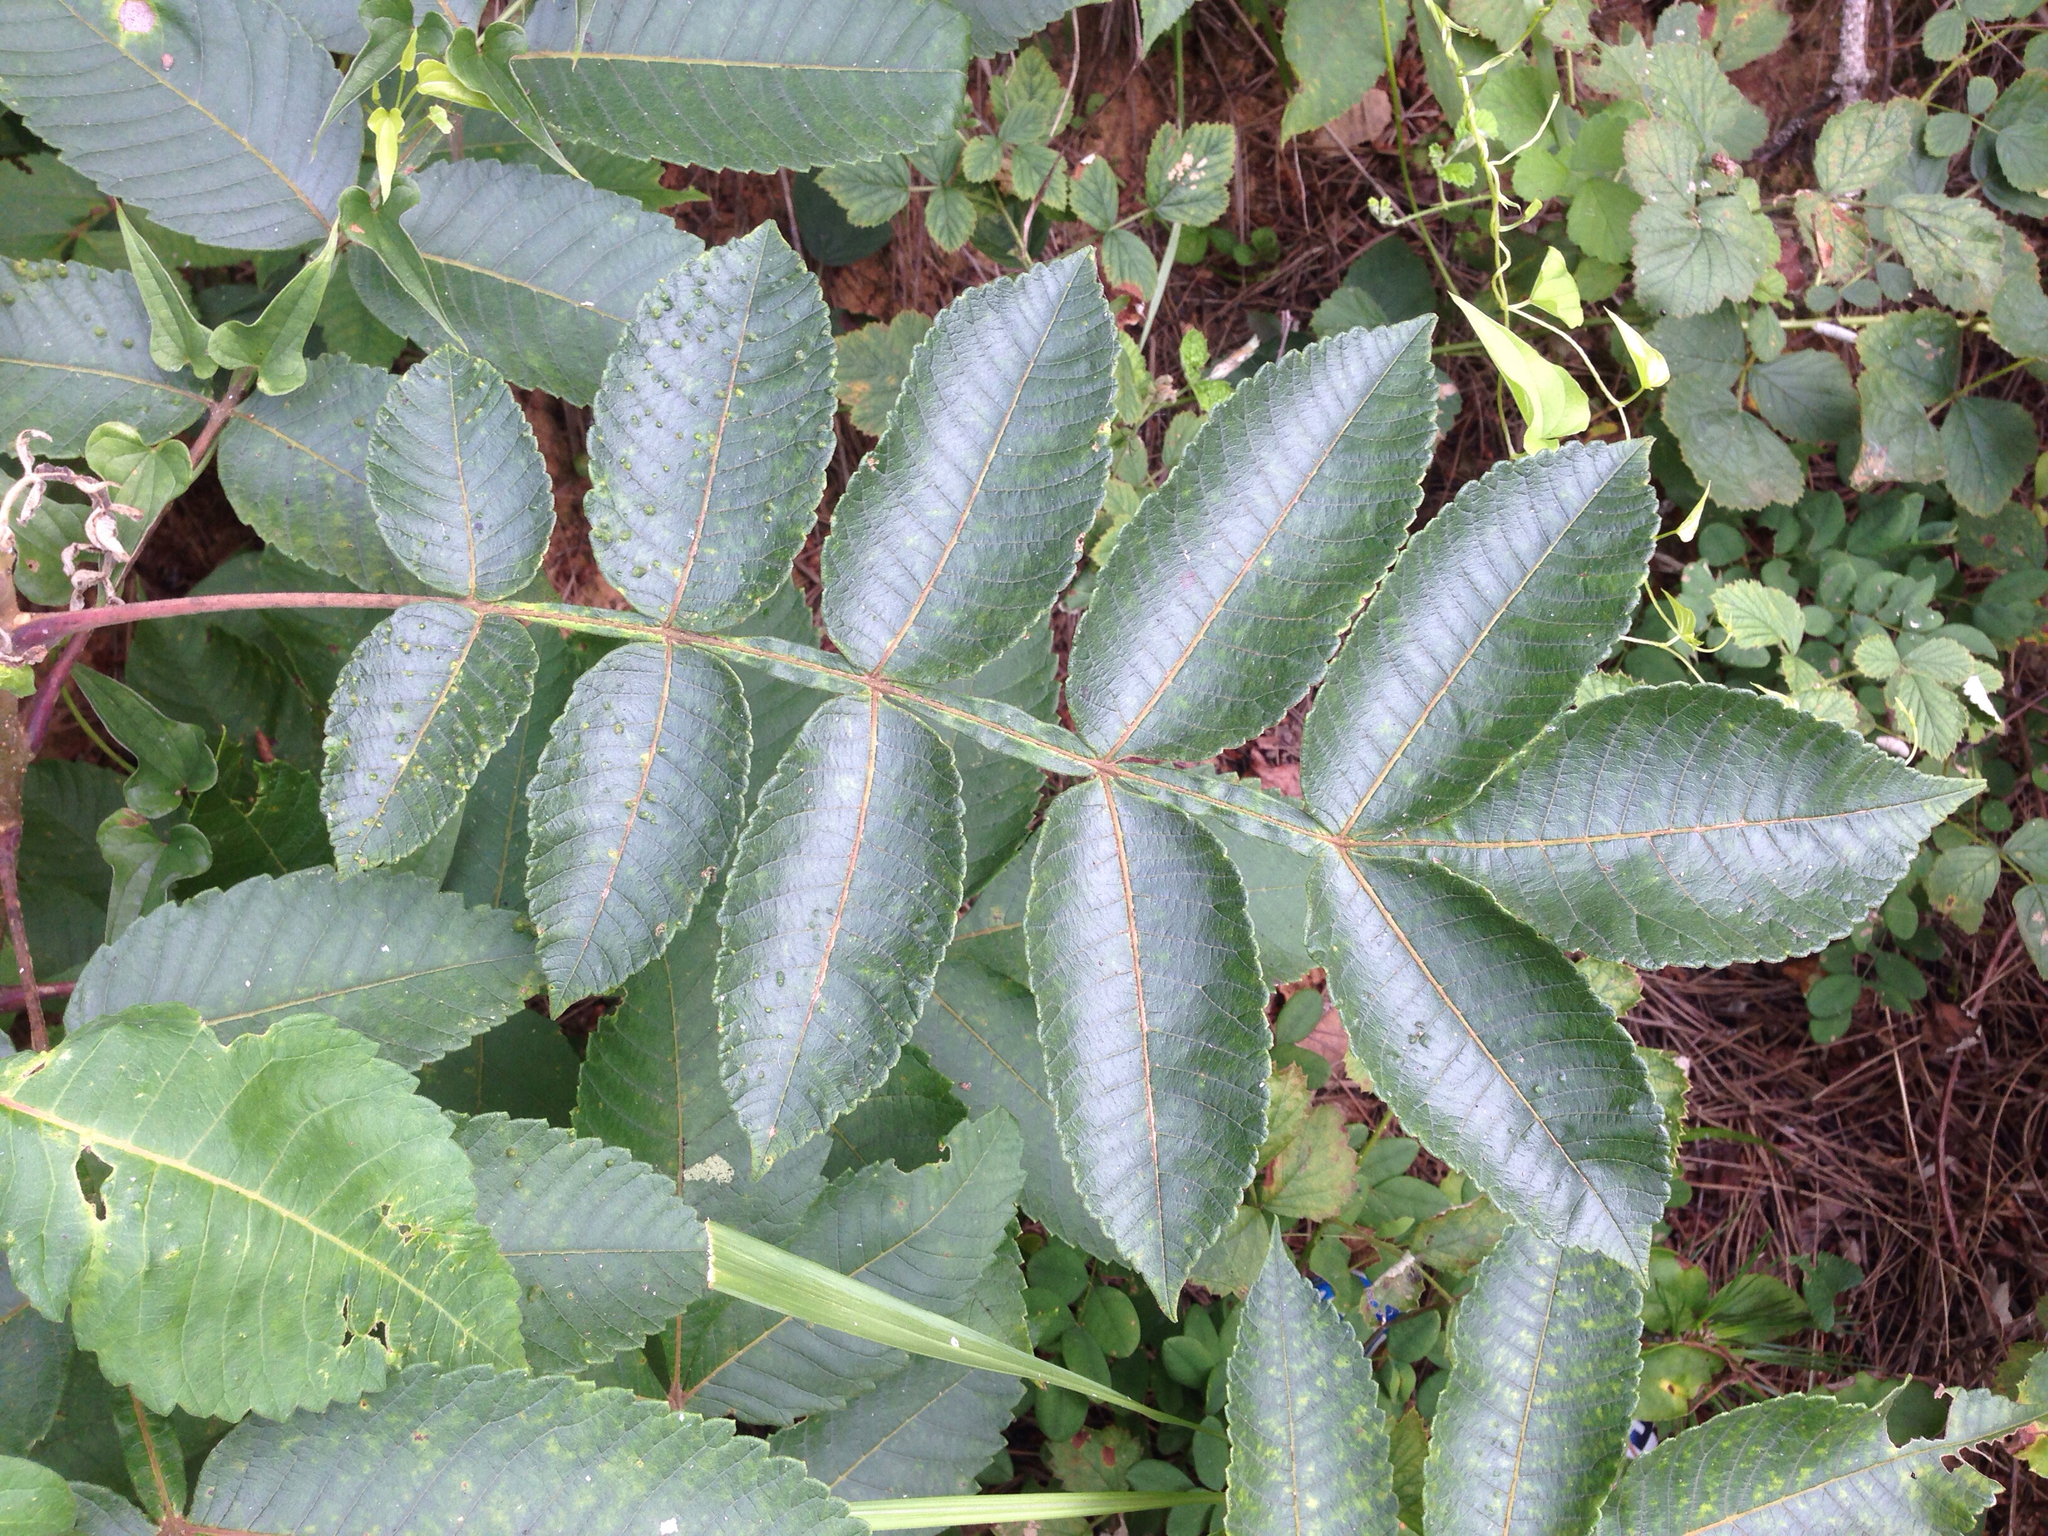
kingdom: Plantae
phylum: Tracheophyta
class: Magnoliopsida
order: Sapindales
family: Anacardiaceae
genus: Rhus
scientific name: Rhus chinensis
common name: Chinese gall
